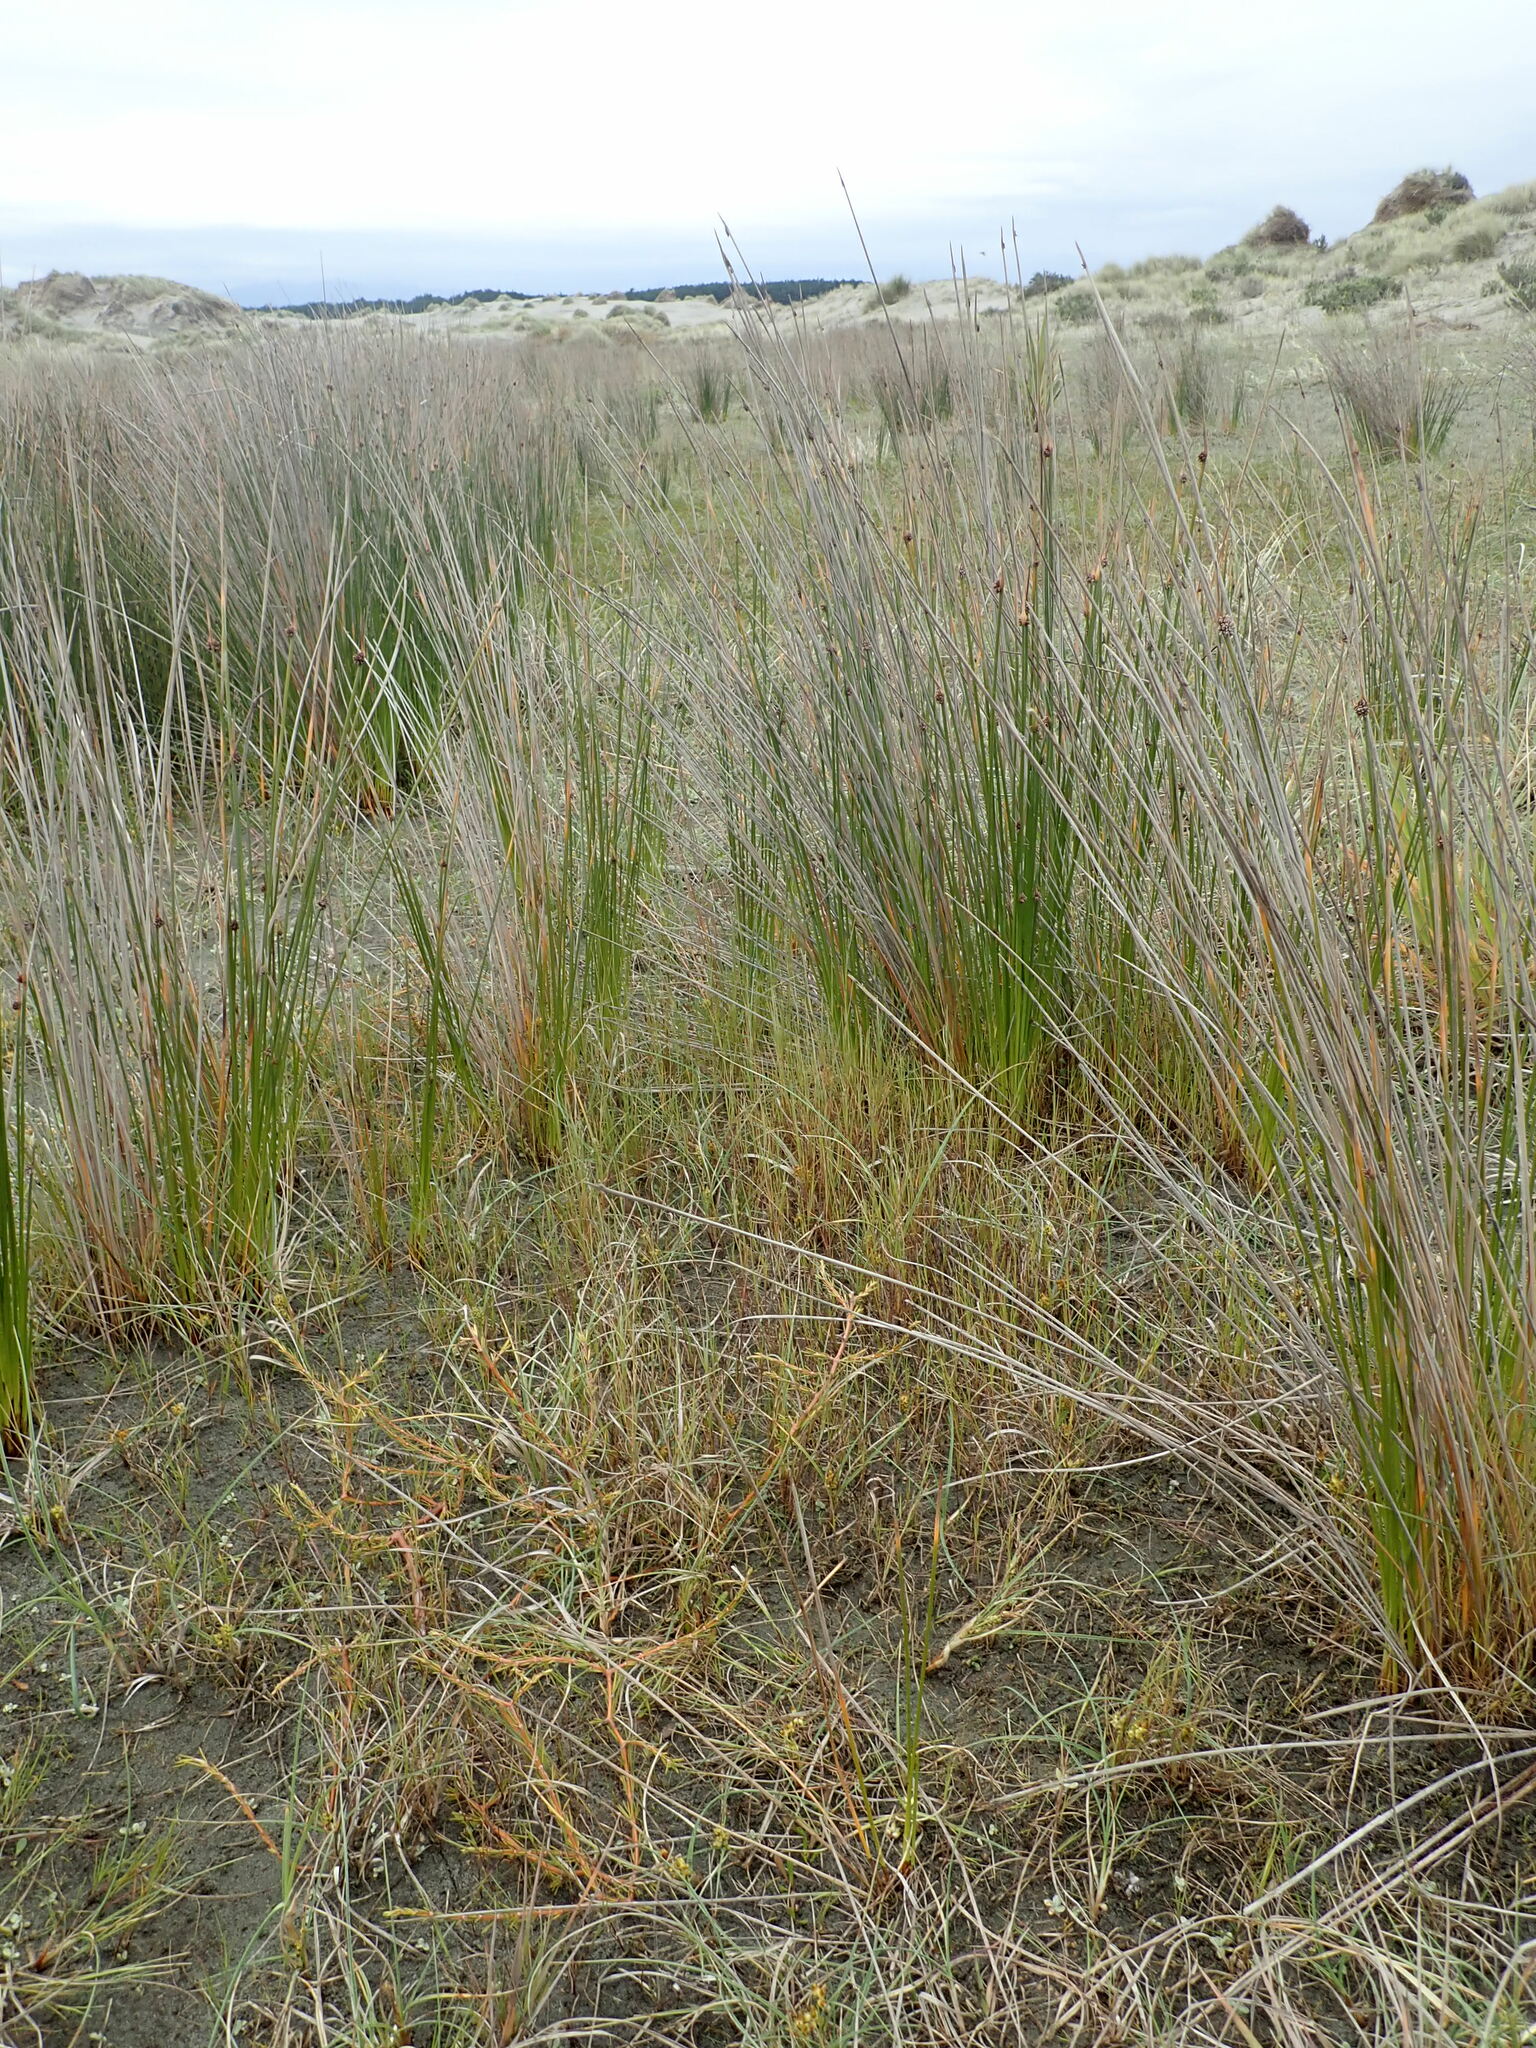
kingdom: Plantae
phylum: Tracheophyta
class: Liliopsida
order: Poales
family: Juncaceae
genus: Juncus
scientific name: Juncus articulatus
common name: Jointed rush
